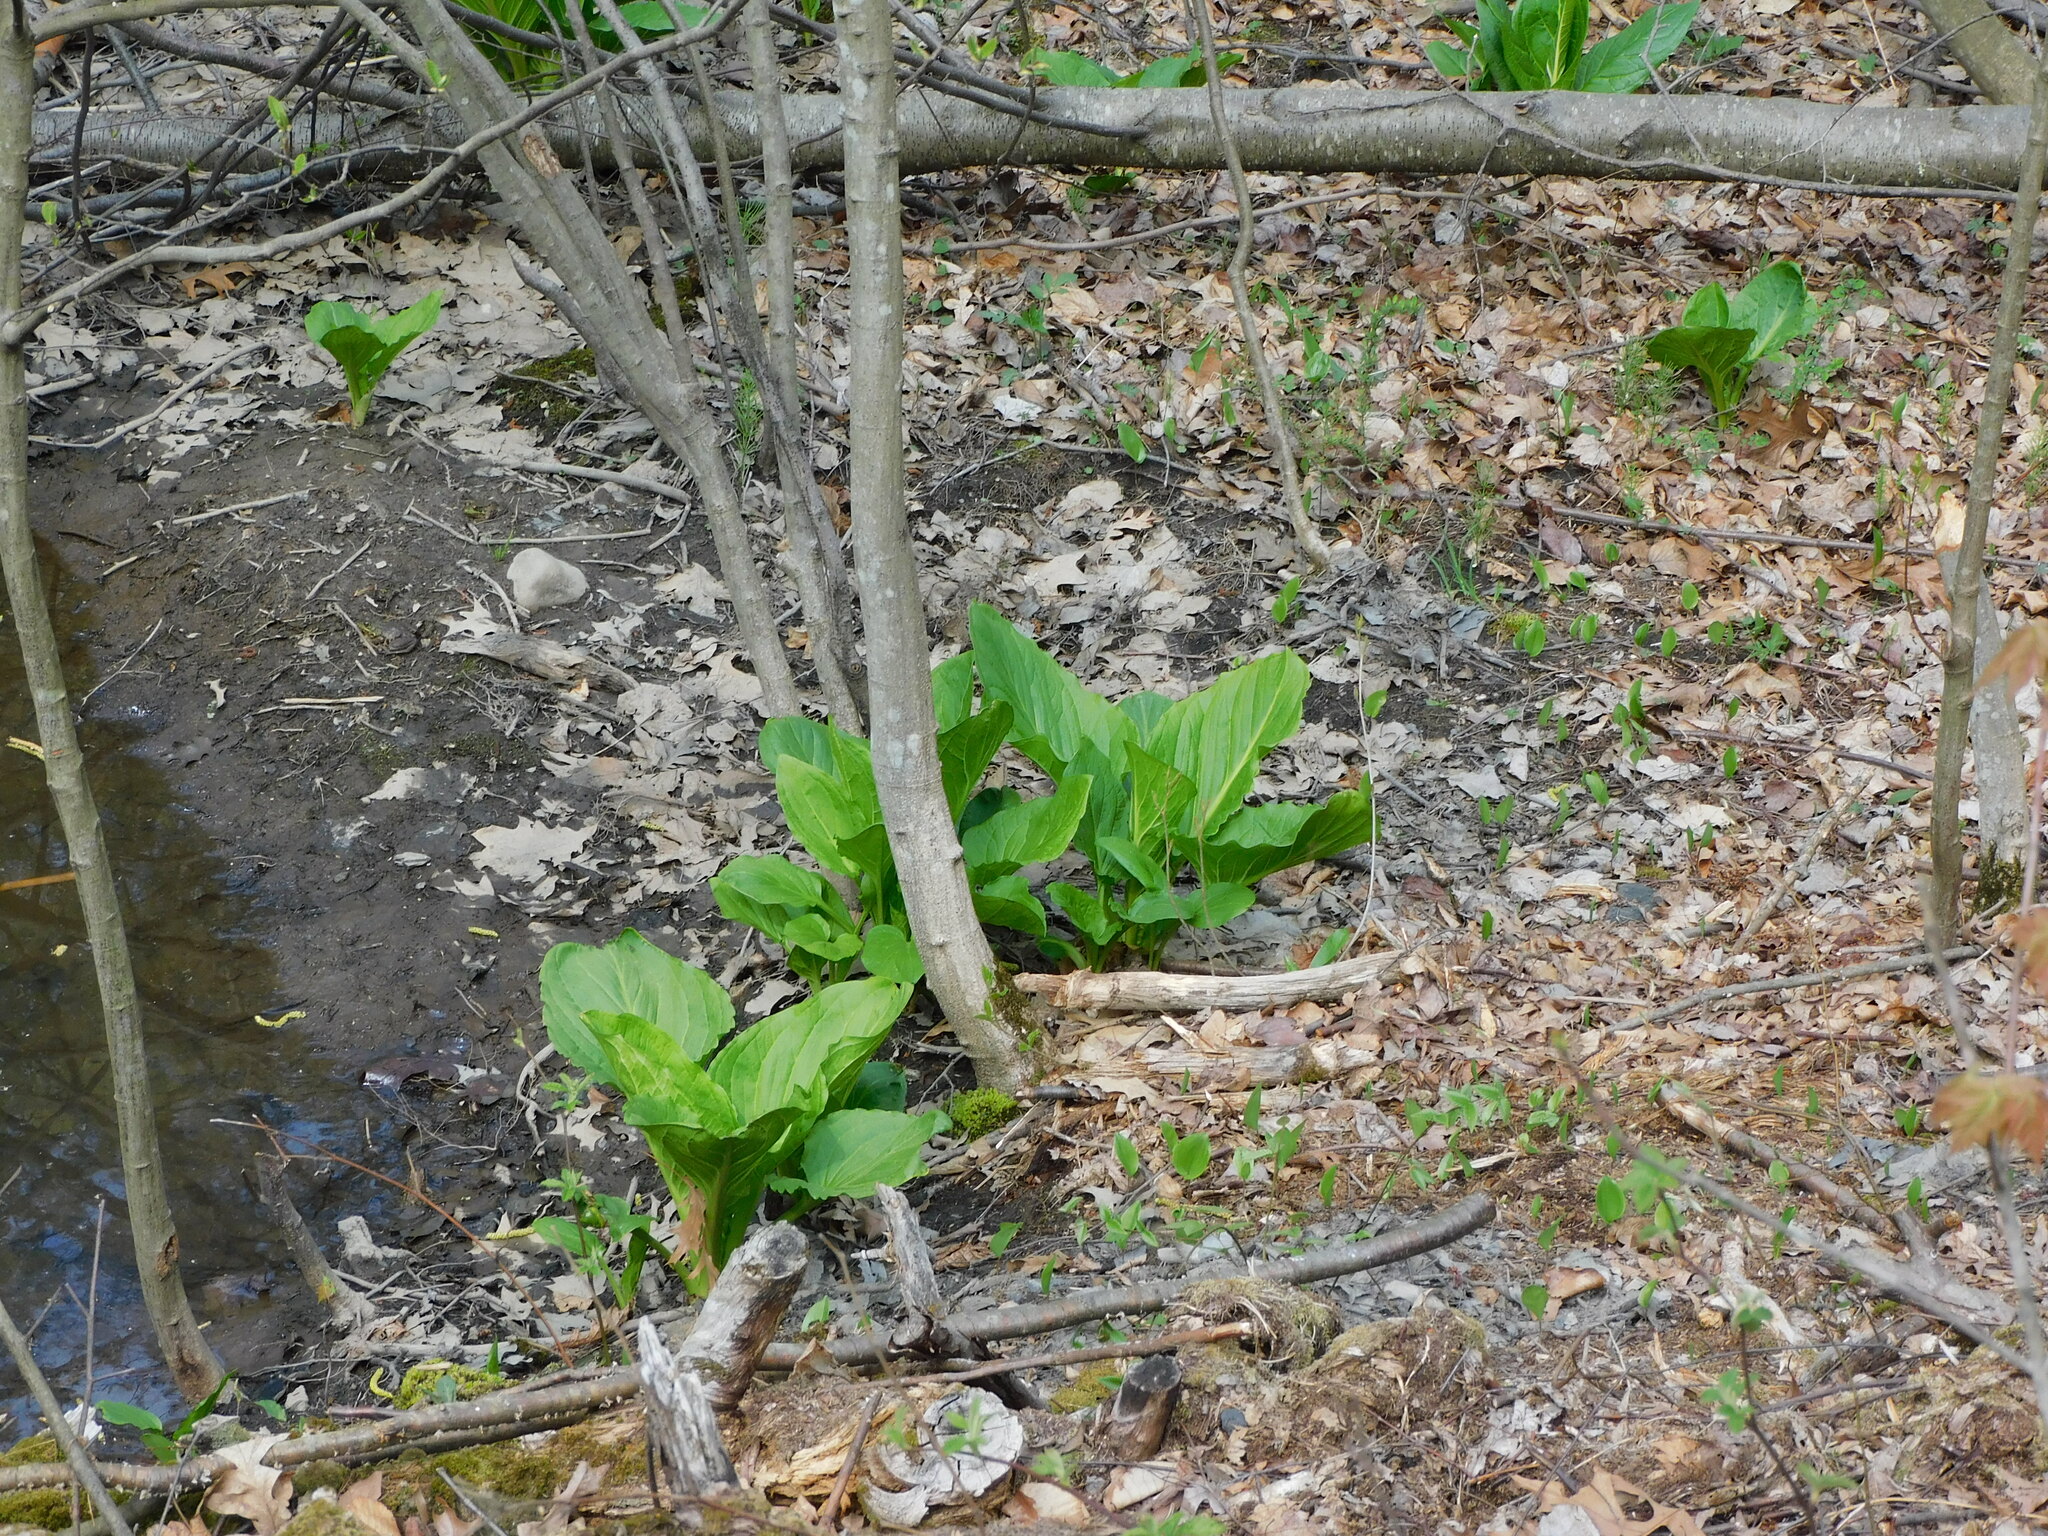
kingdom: Plantae
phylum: Tracheophyta
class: Liliopsida
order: Alismatales
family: Araceae
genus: Symplocarpus
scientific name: Symplocarpus foetidus
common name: Eastern skunk cabbage
